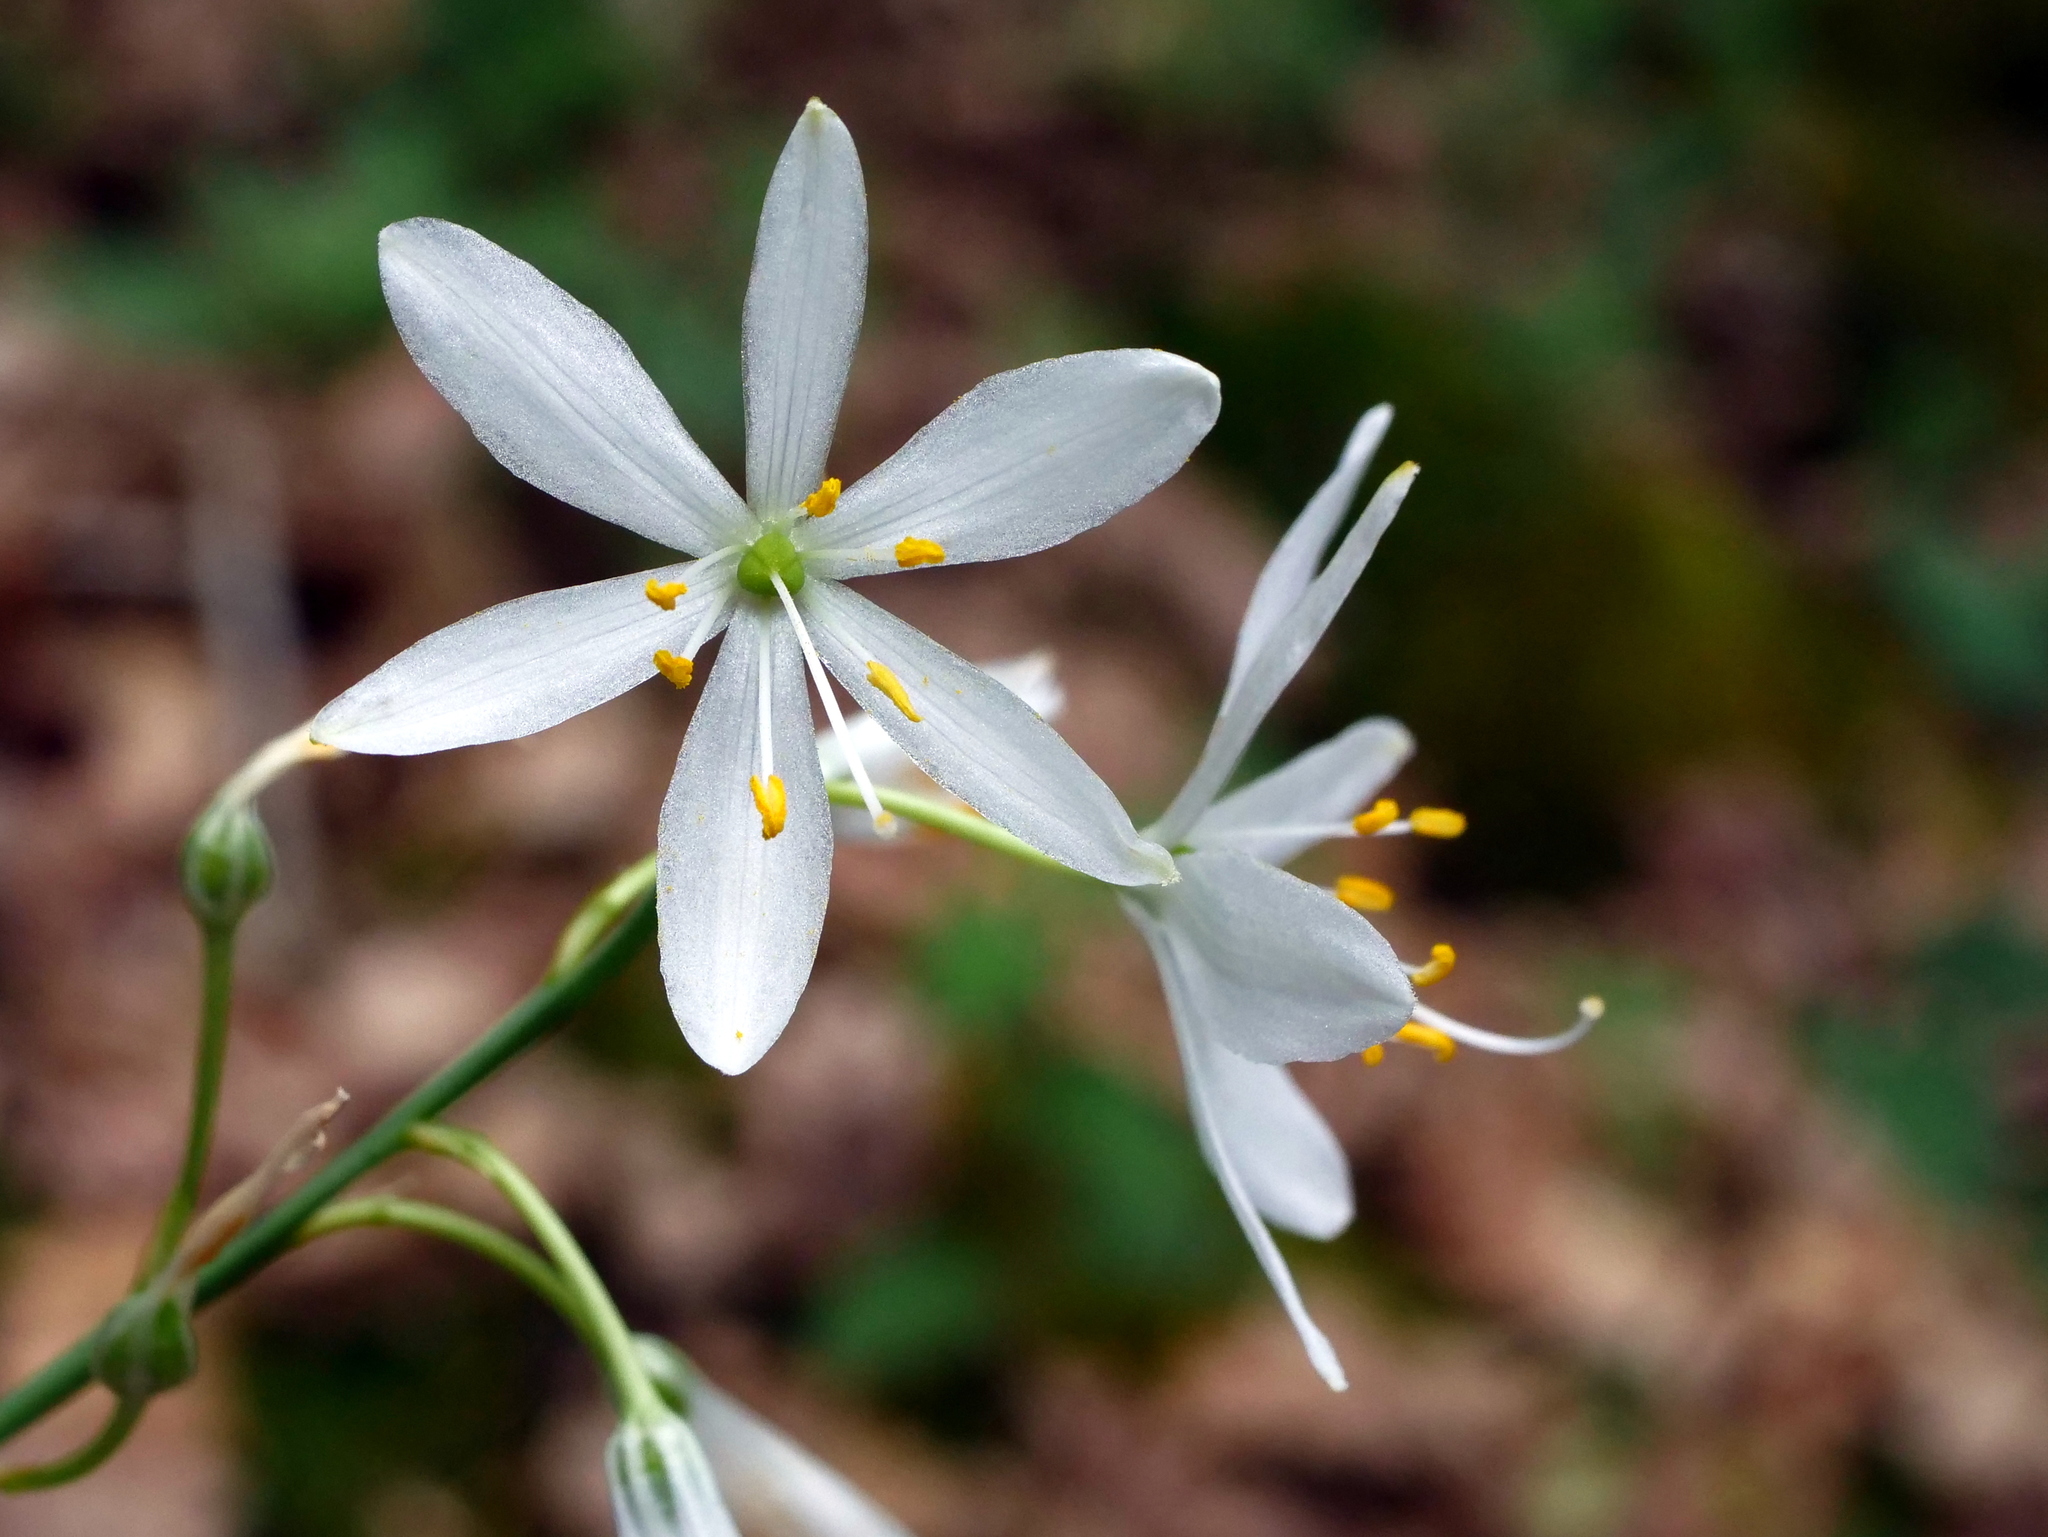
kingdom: Plantae
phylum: Tracheophyta
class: Liliopsida
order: Asparagales
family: Asparagaceae
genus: Anthericum
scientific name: Anthericum liliago
